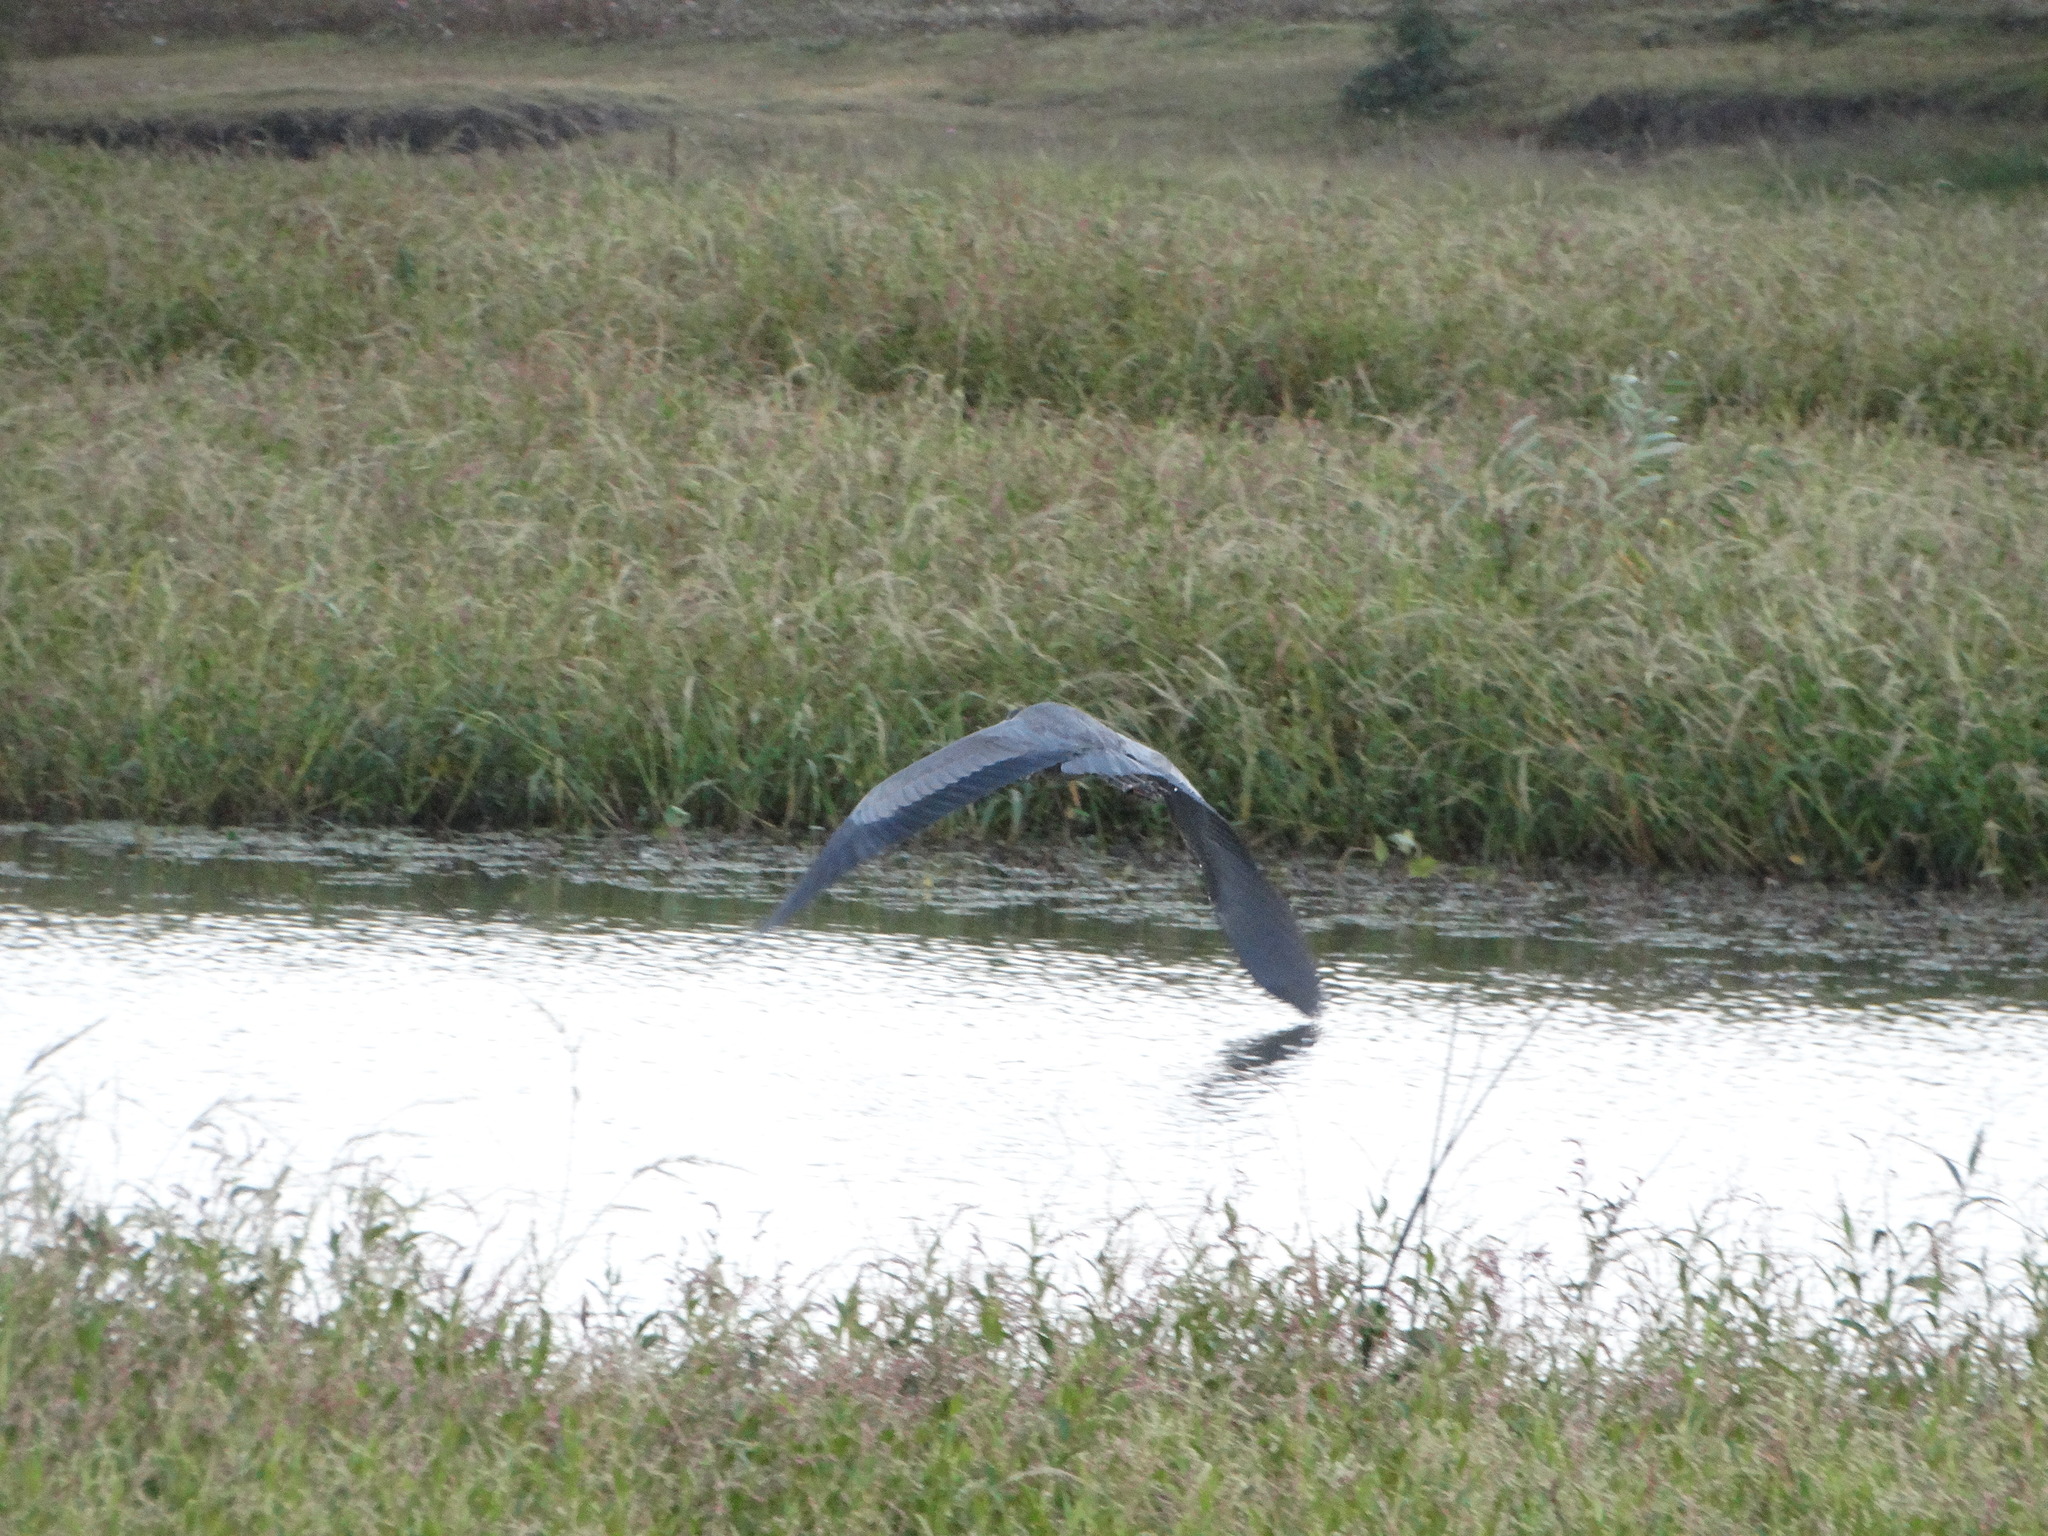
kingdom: Animalia
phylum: Chordata
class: Aves
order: Pelecaniformes
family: Ardeidae
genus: Ardea
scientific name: Ardea herodias
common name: Great blue heron
